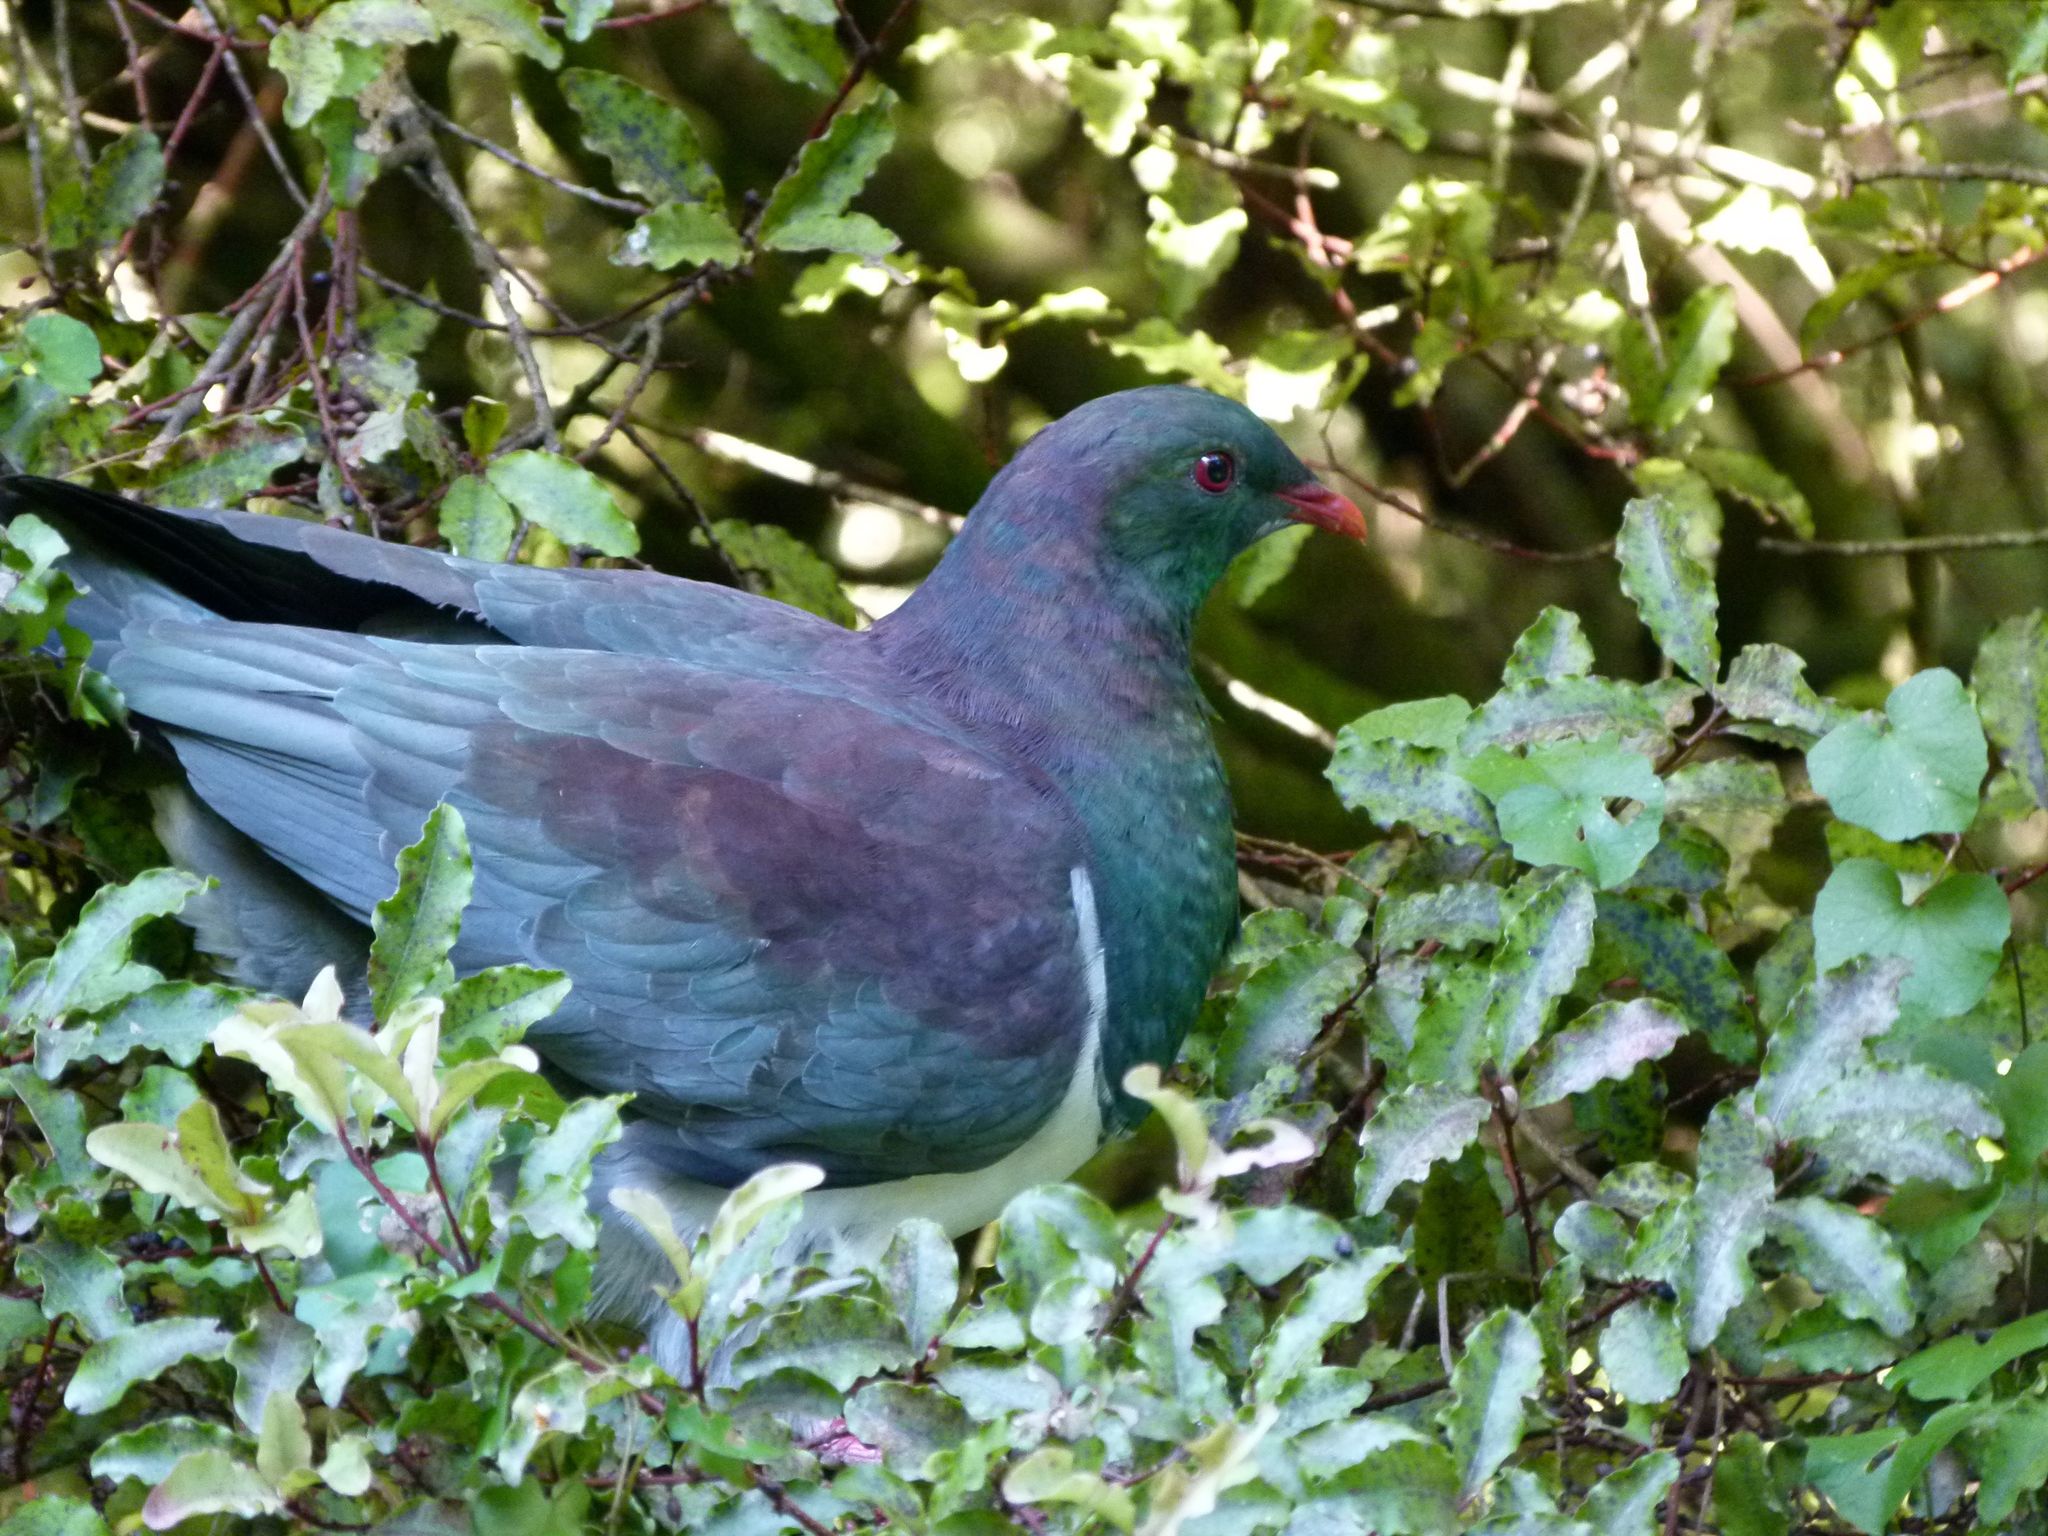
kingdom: Animalia
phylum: Chordata
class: Aves
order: Columbiformes
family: Columbidae
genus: Hemiphaga
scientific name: Hemiphaga novaeseelandiae
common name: New zealand pigeon
